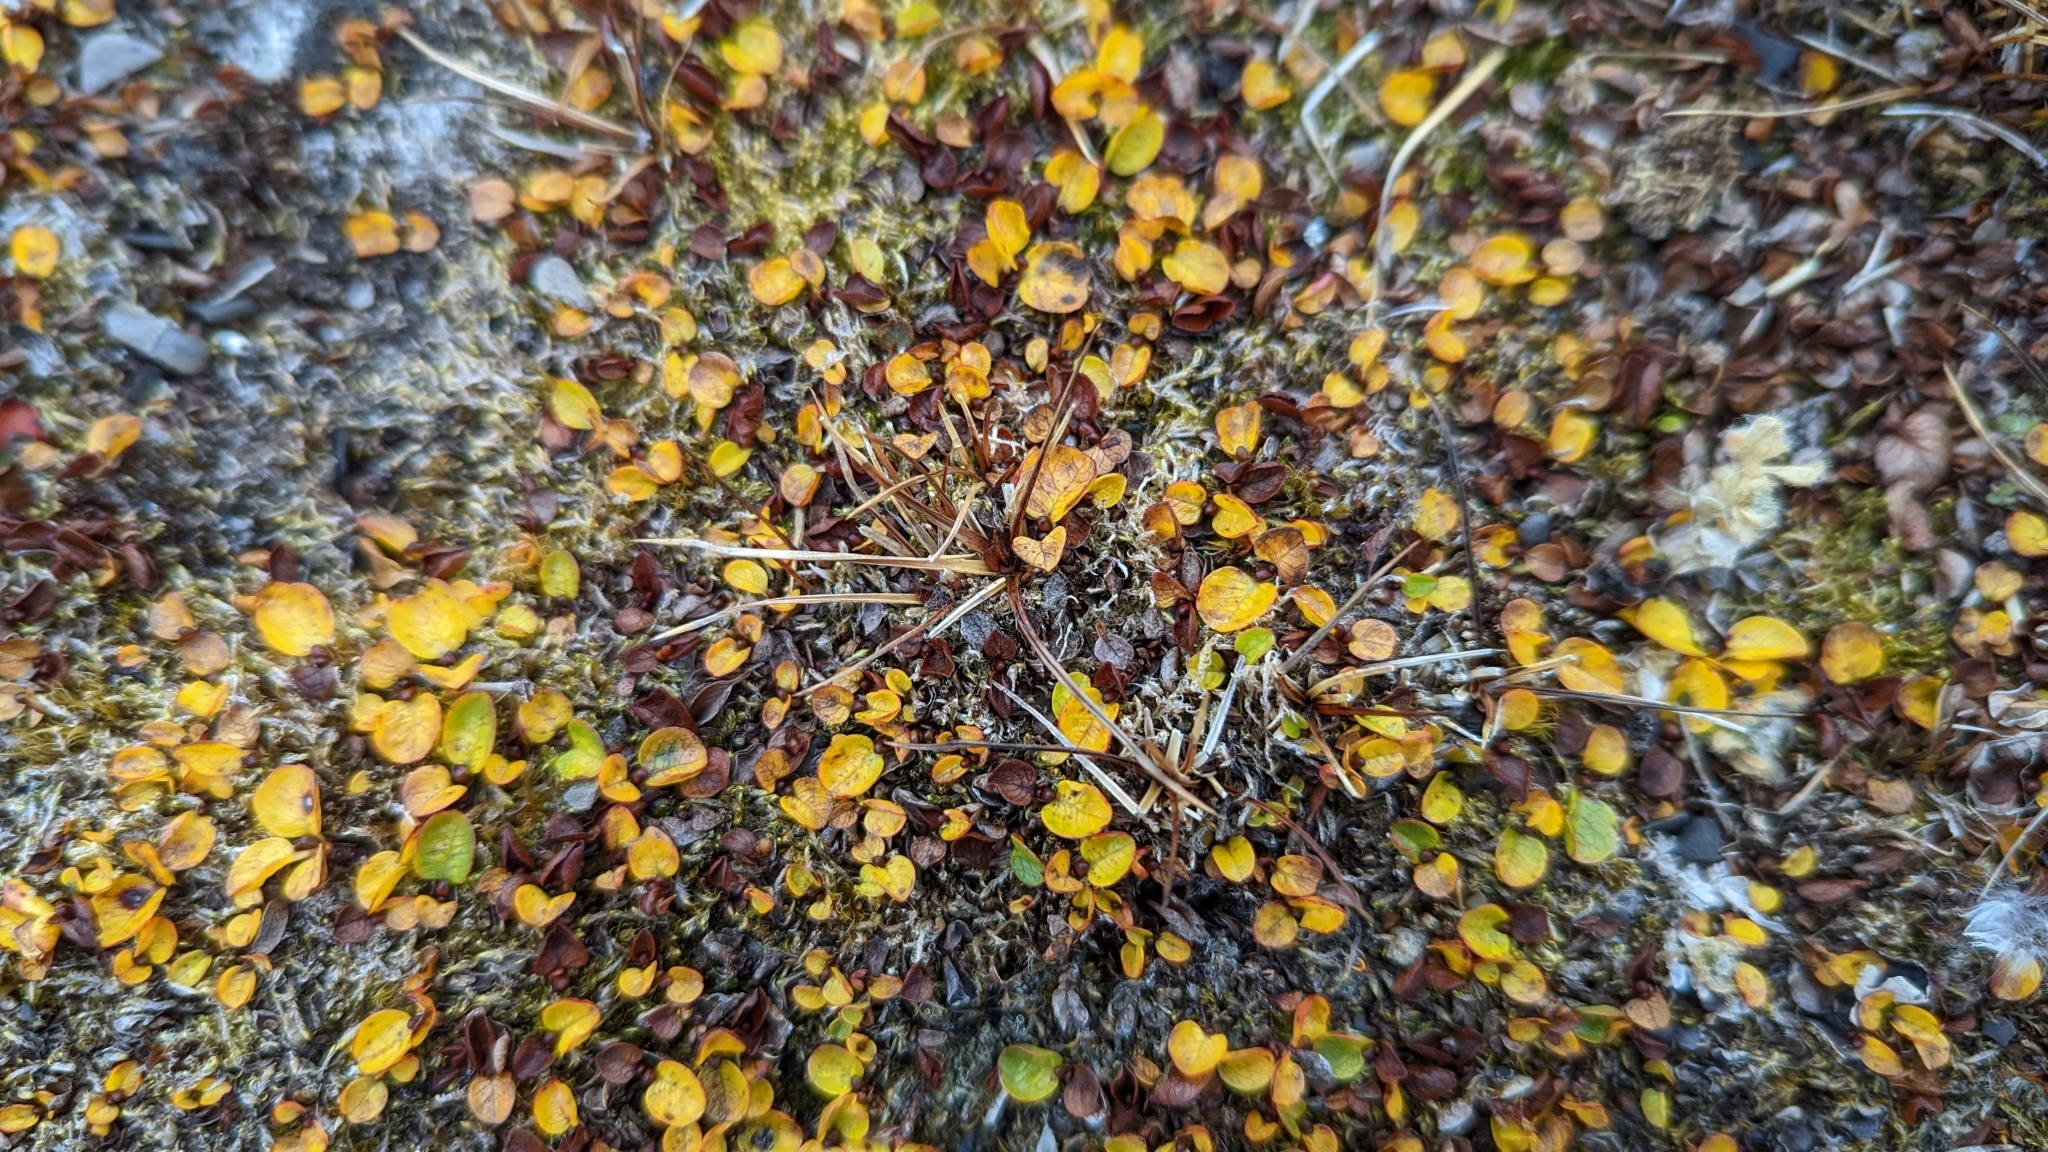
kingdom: Plantae
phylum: Tracheophyta
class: Magnoliopsida
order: Malpighiales
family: Salicaceae
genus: Salix
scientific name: Salix polaris
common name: Polar willow
